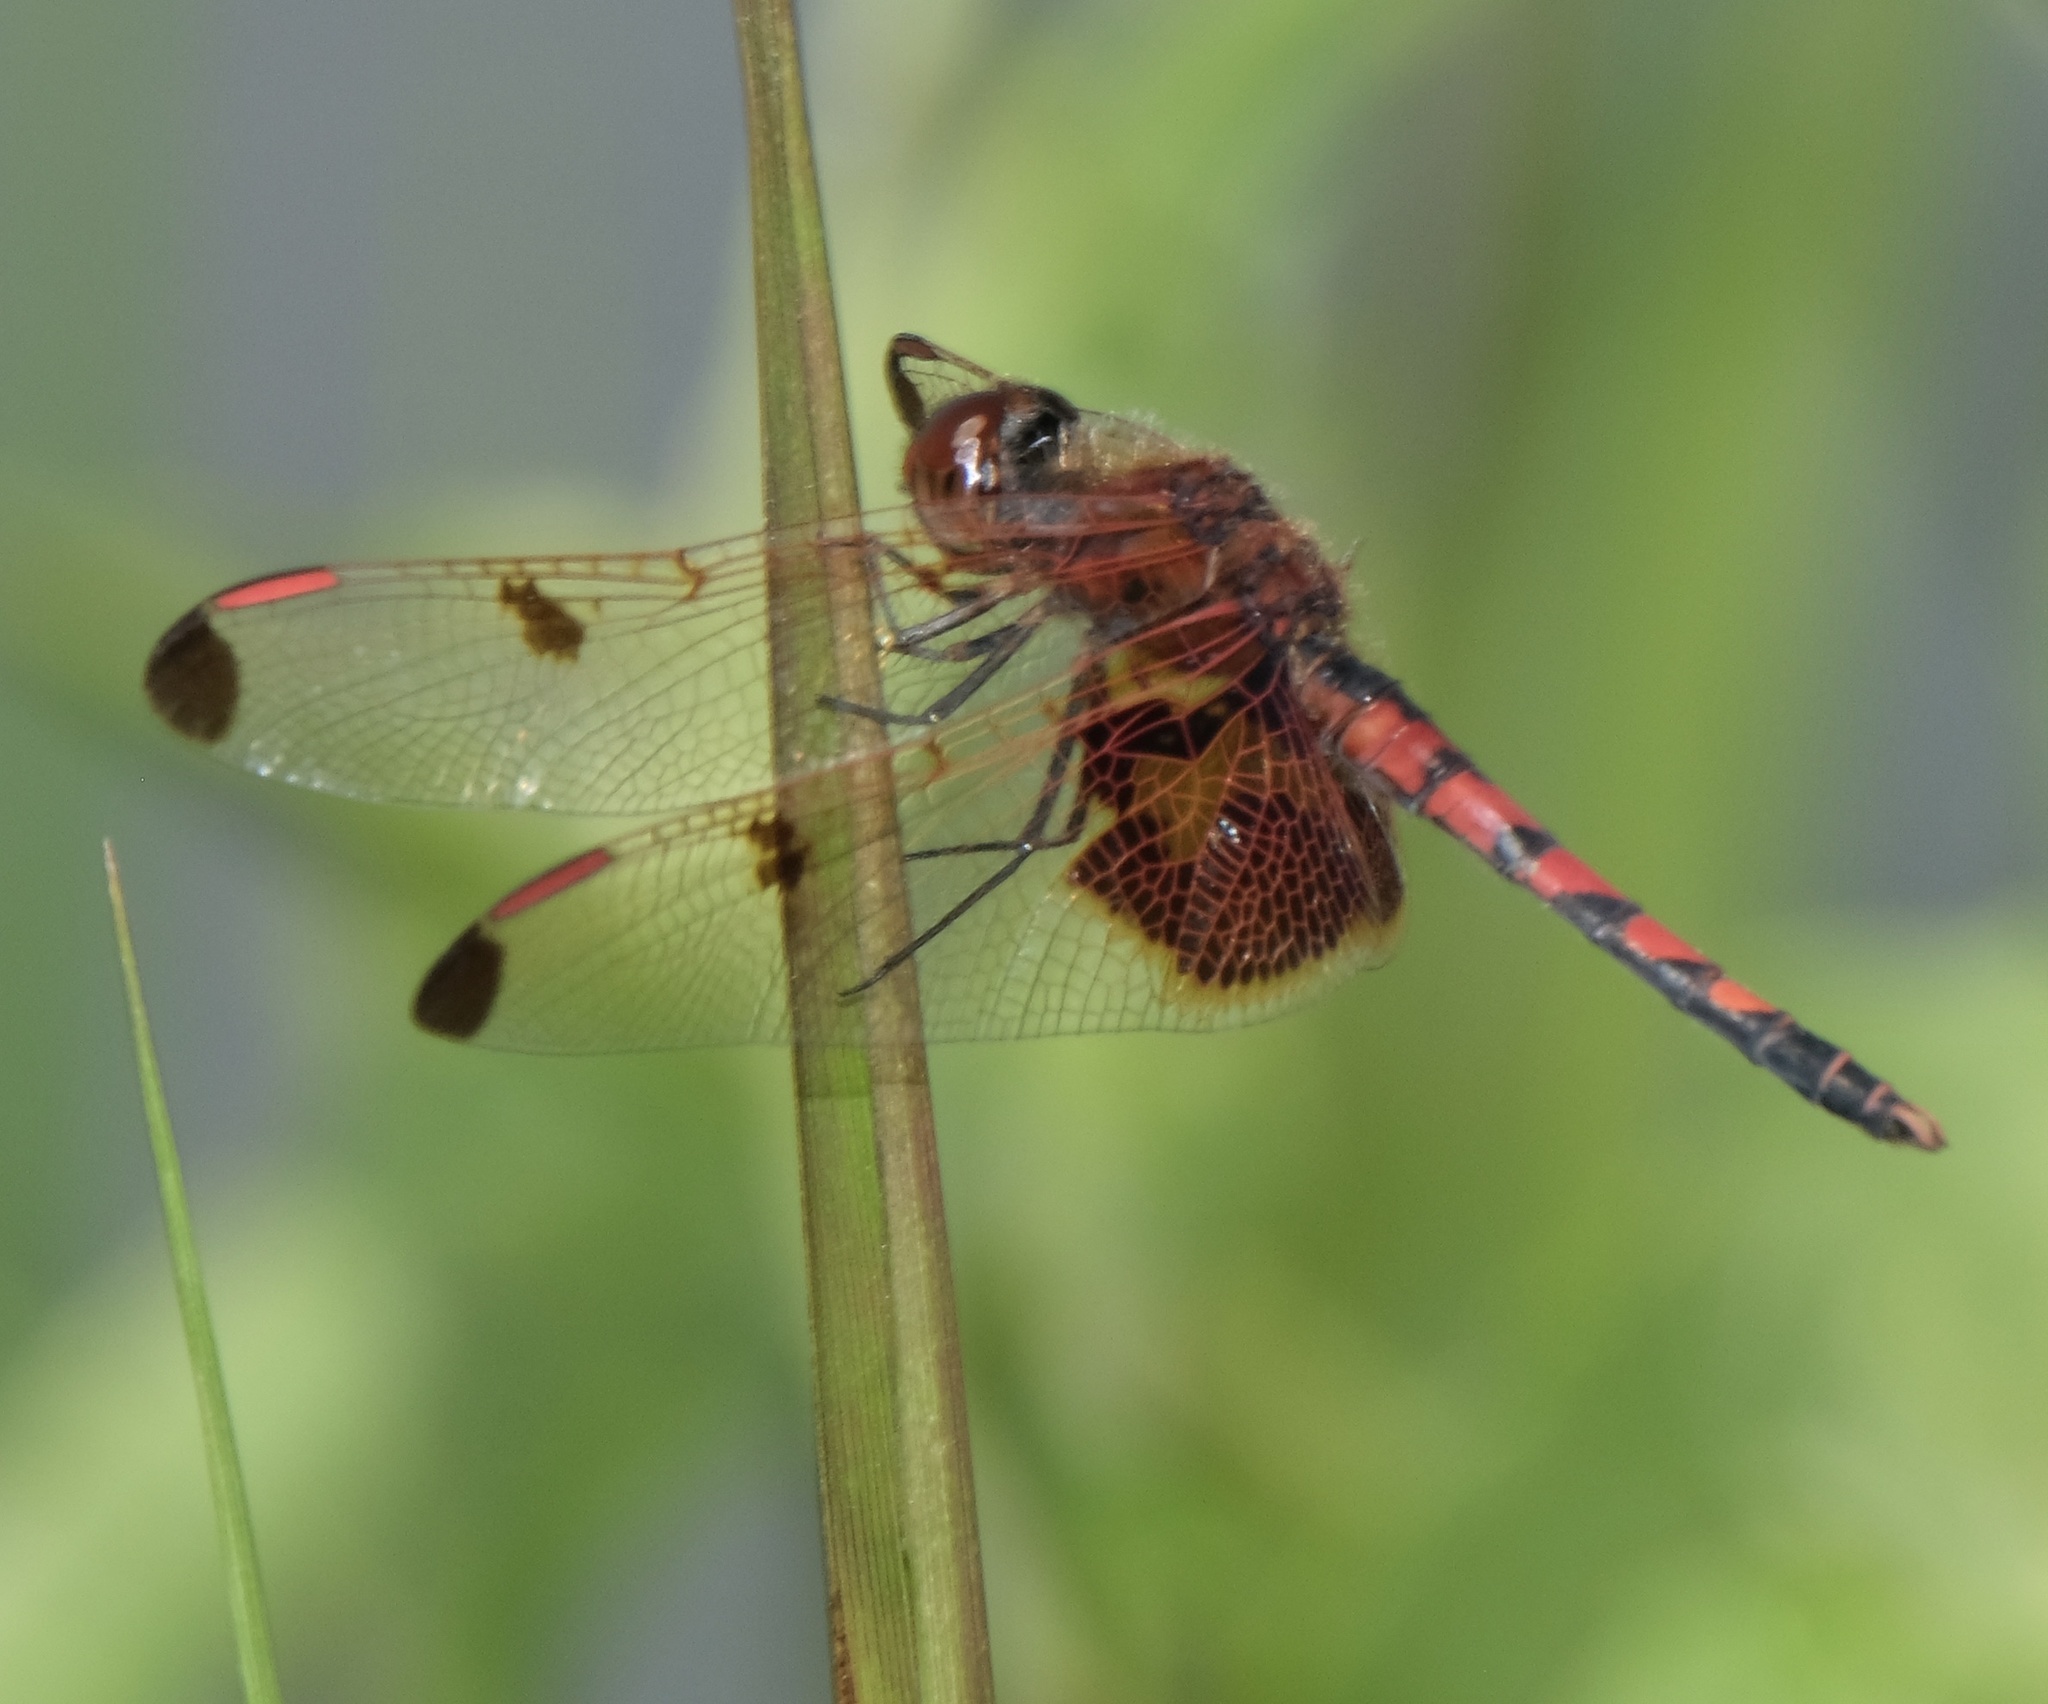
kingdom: Animalia
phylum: Arthropoda
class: Insecta
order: Odonata
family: Libellulidae
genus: Celithemis
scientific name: Celithemis elisa
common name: Calico pennant
